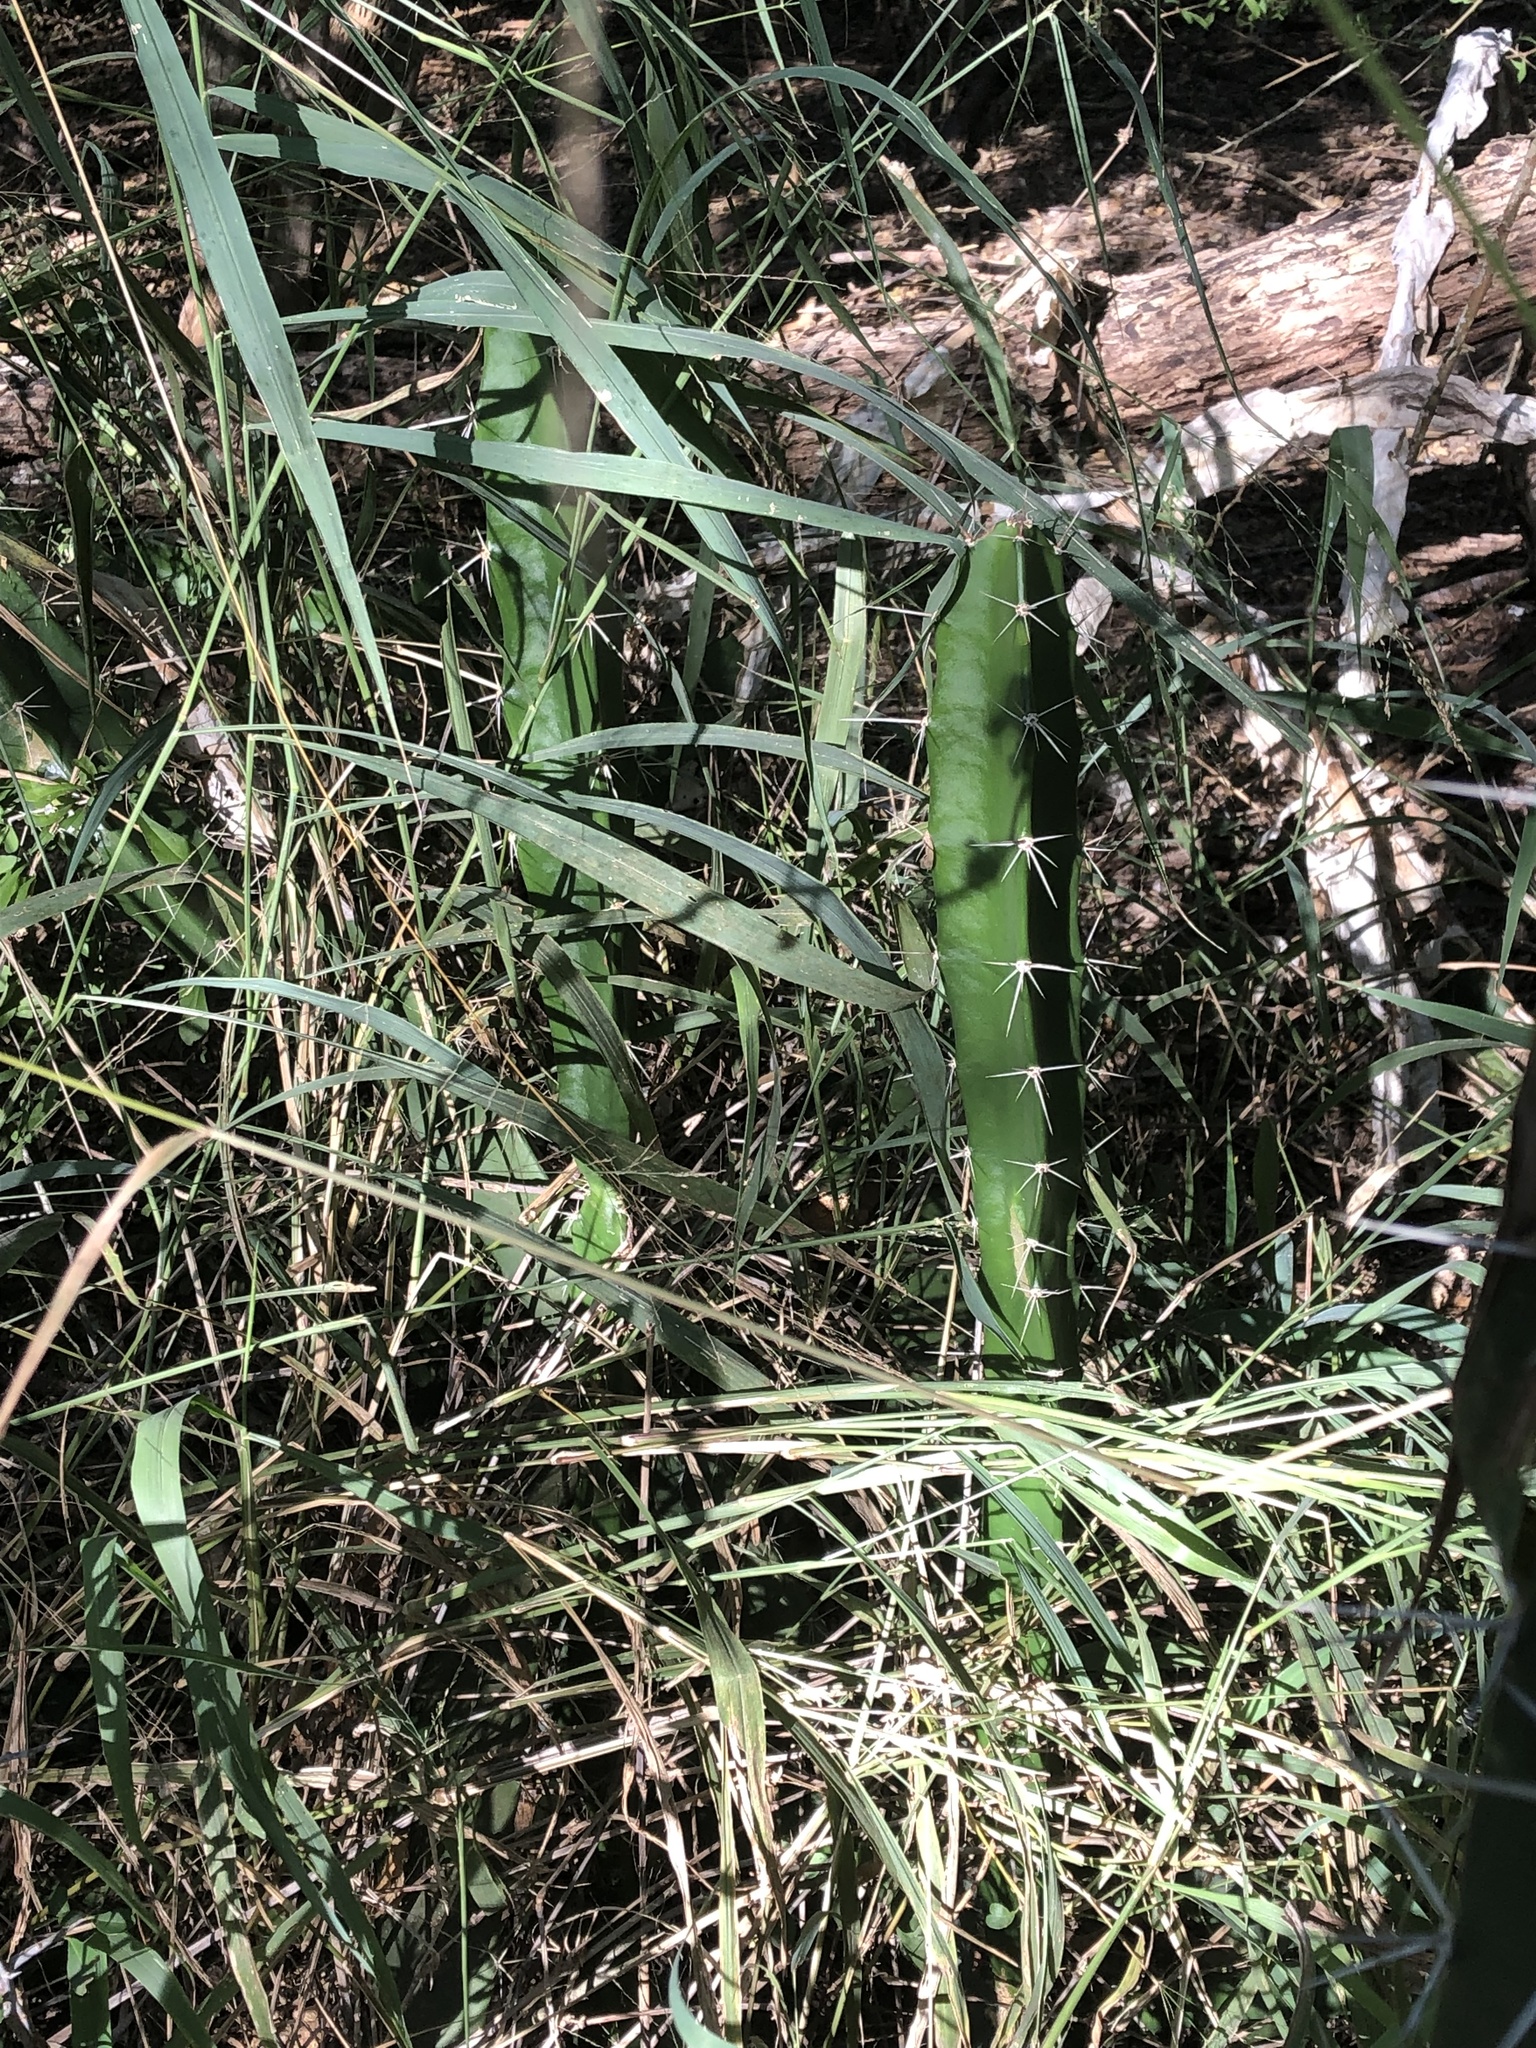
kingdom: Plantae
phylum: Tracheophyta
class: Magnoliopsida
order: Caryophyllales
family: Cactaceae
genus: Acanthocereus
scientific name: Acanthocereus tetragonus
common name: Triangle cactus
